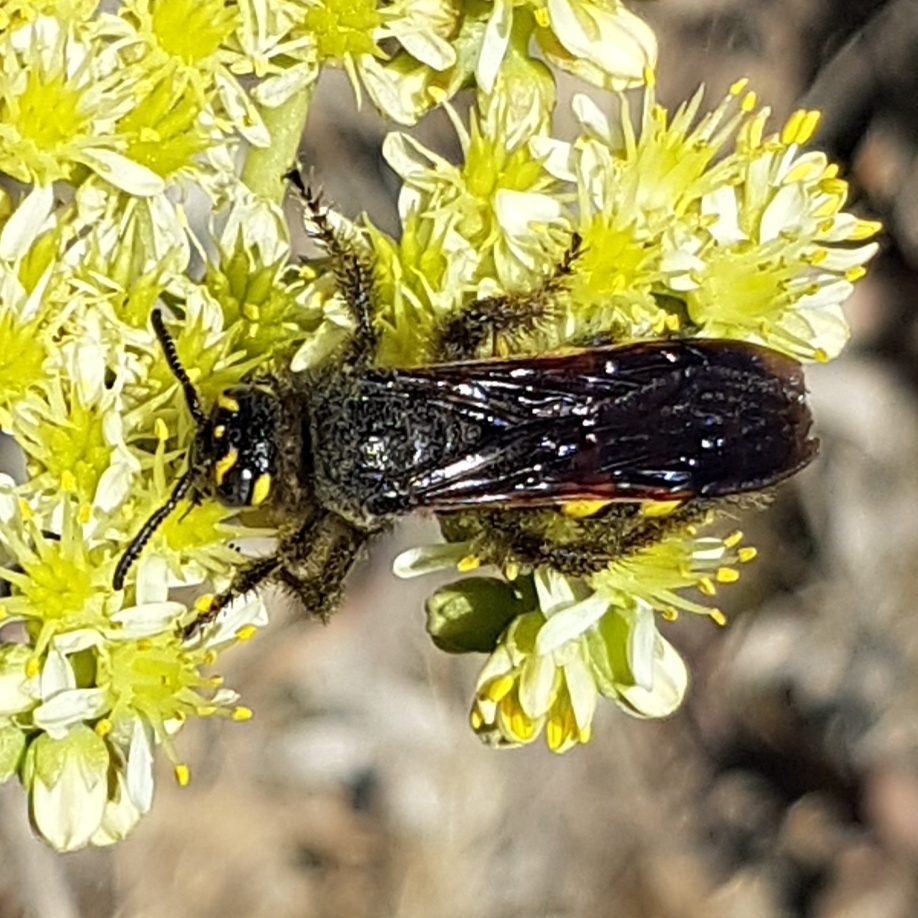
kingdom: Animalia
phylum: Arthropoda
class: Insecta
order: Hymenoptera
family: Vespidae
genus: Vespa
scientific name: Vespa sexmaculata
